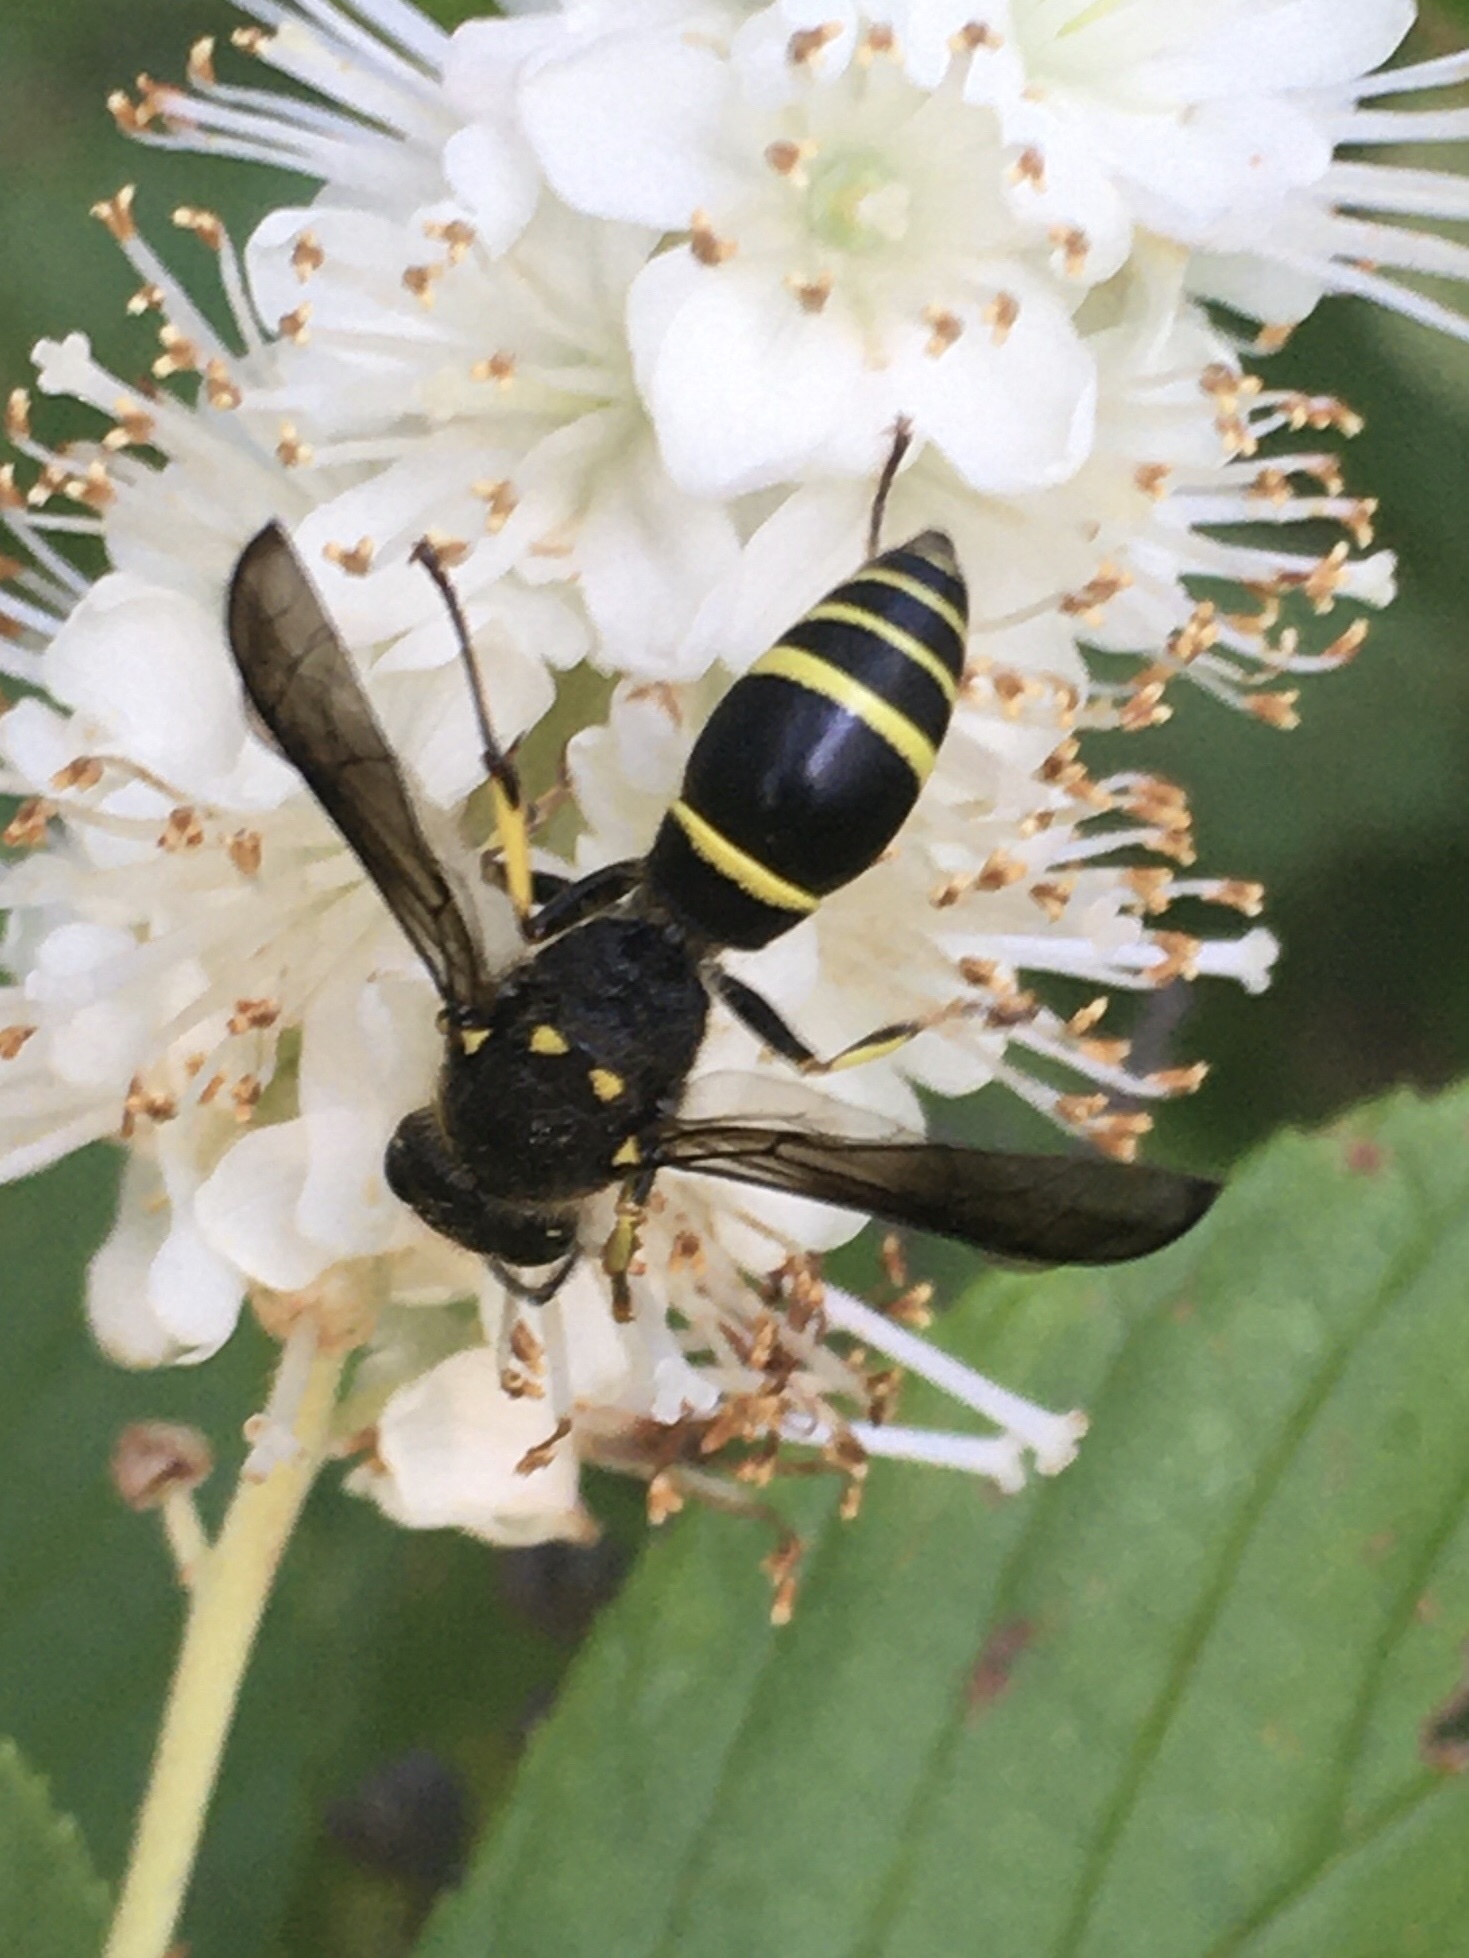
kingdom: Animalia
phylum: Arthropoda
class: Insecta
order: Hymenoptera
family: Vespidae
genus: Ancistrocerus
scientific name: Ancistrocerus
